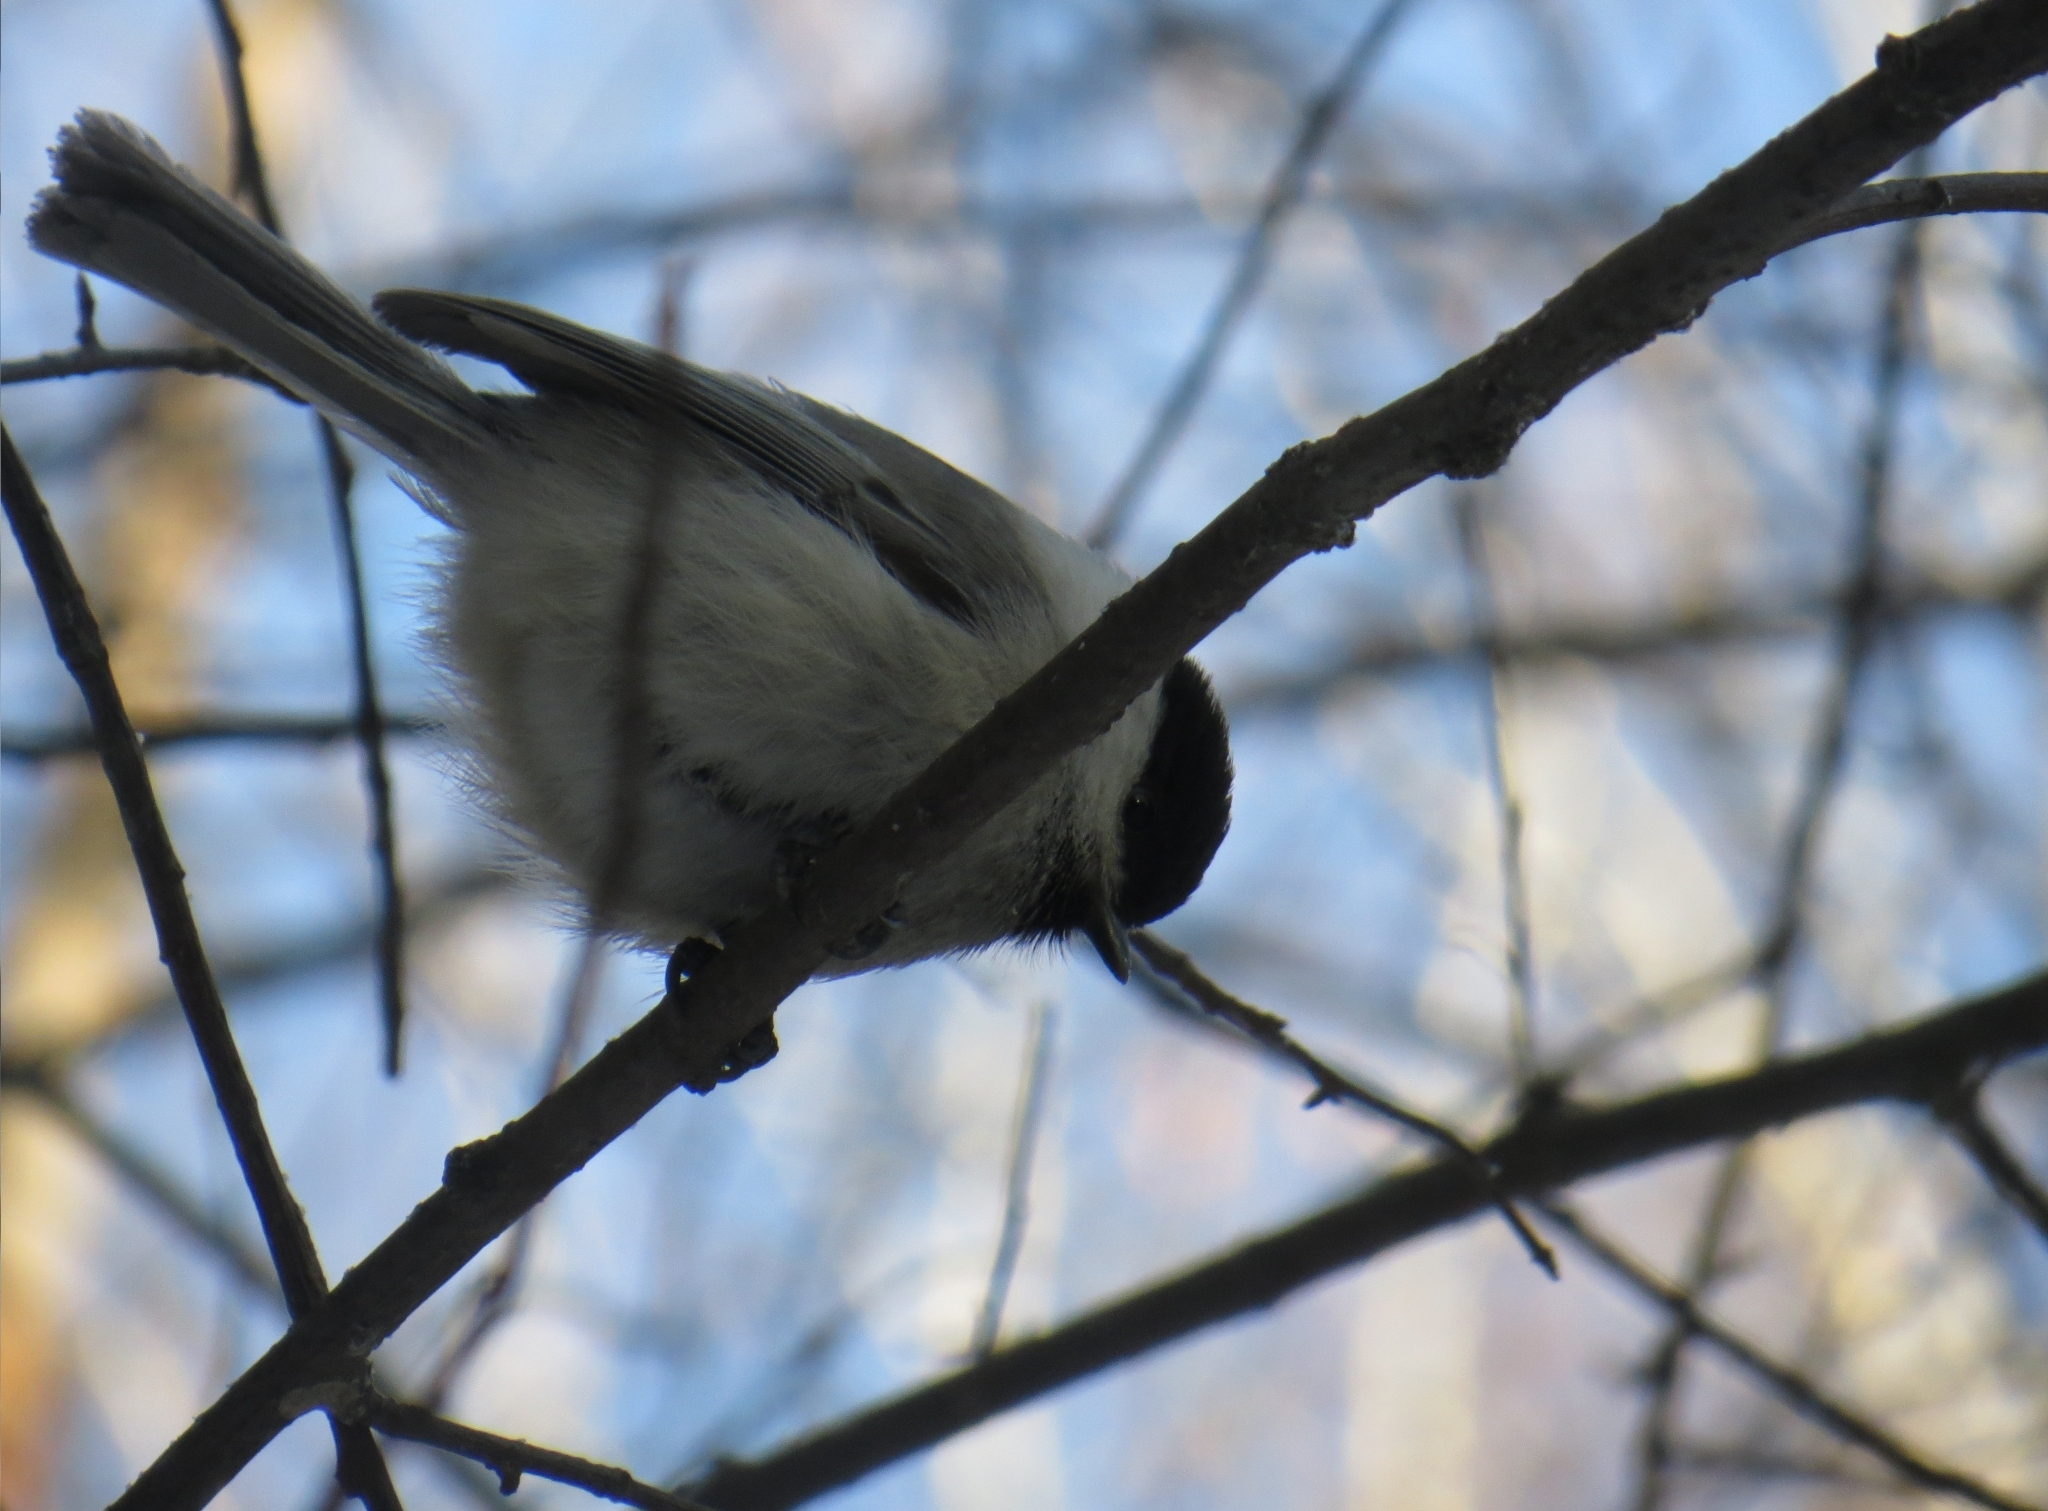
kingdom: Animalia
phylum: Chordata
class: Aves
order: Passeriformes
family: Paridae
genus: Poecile
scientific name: Poecile montanus
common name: Willow tit
